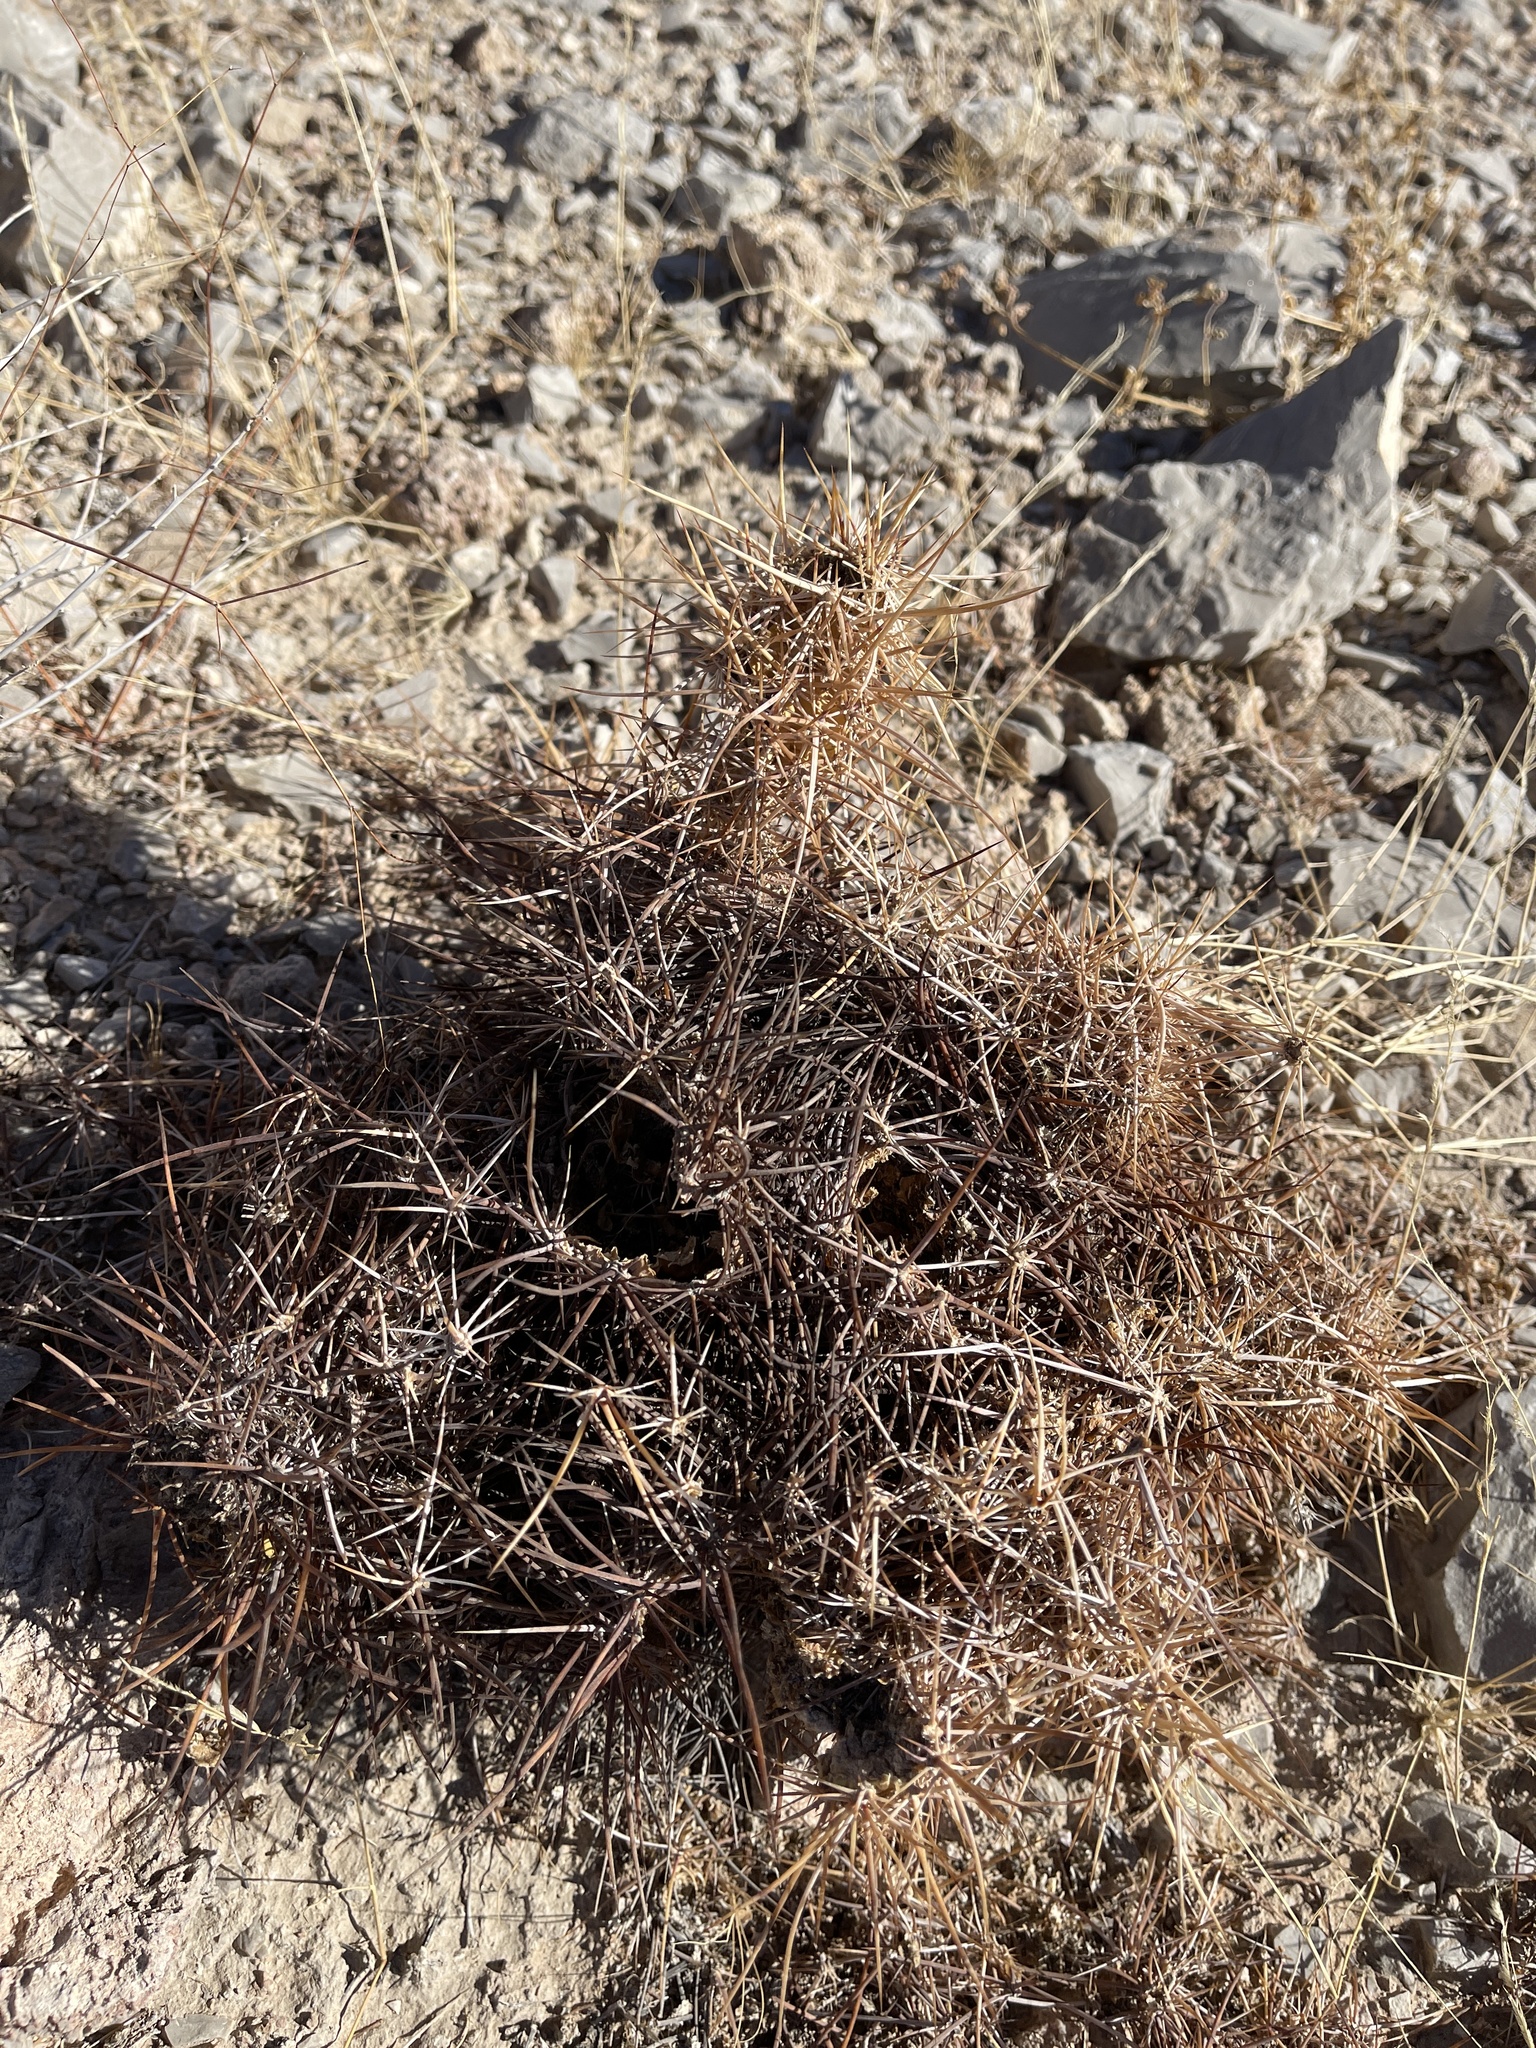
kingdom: Plantae
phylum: Tracheophyta
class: Magnoliopsida
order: Caryophyllales
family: Cactaceae
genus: Echinocereus
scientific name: Echinocereus engelmannii
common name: Engelmann's hedgehog cactus
